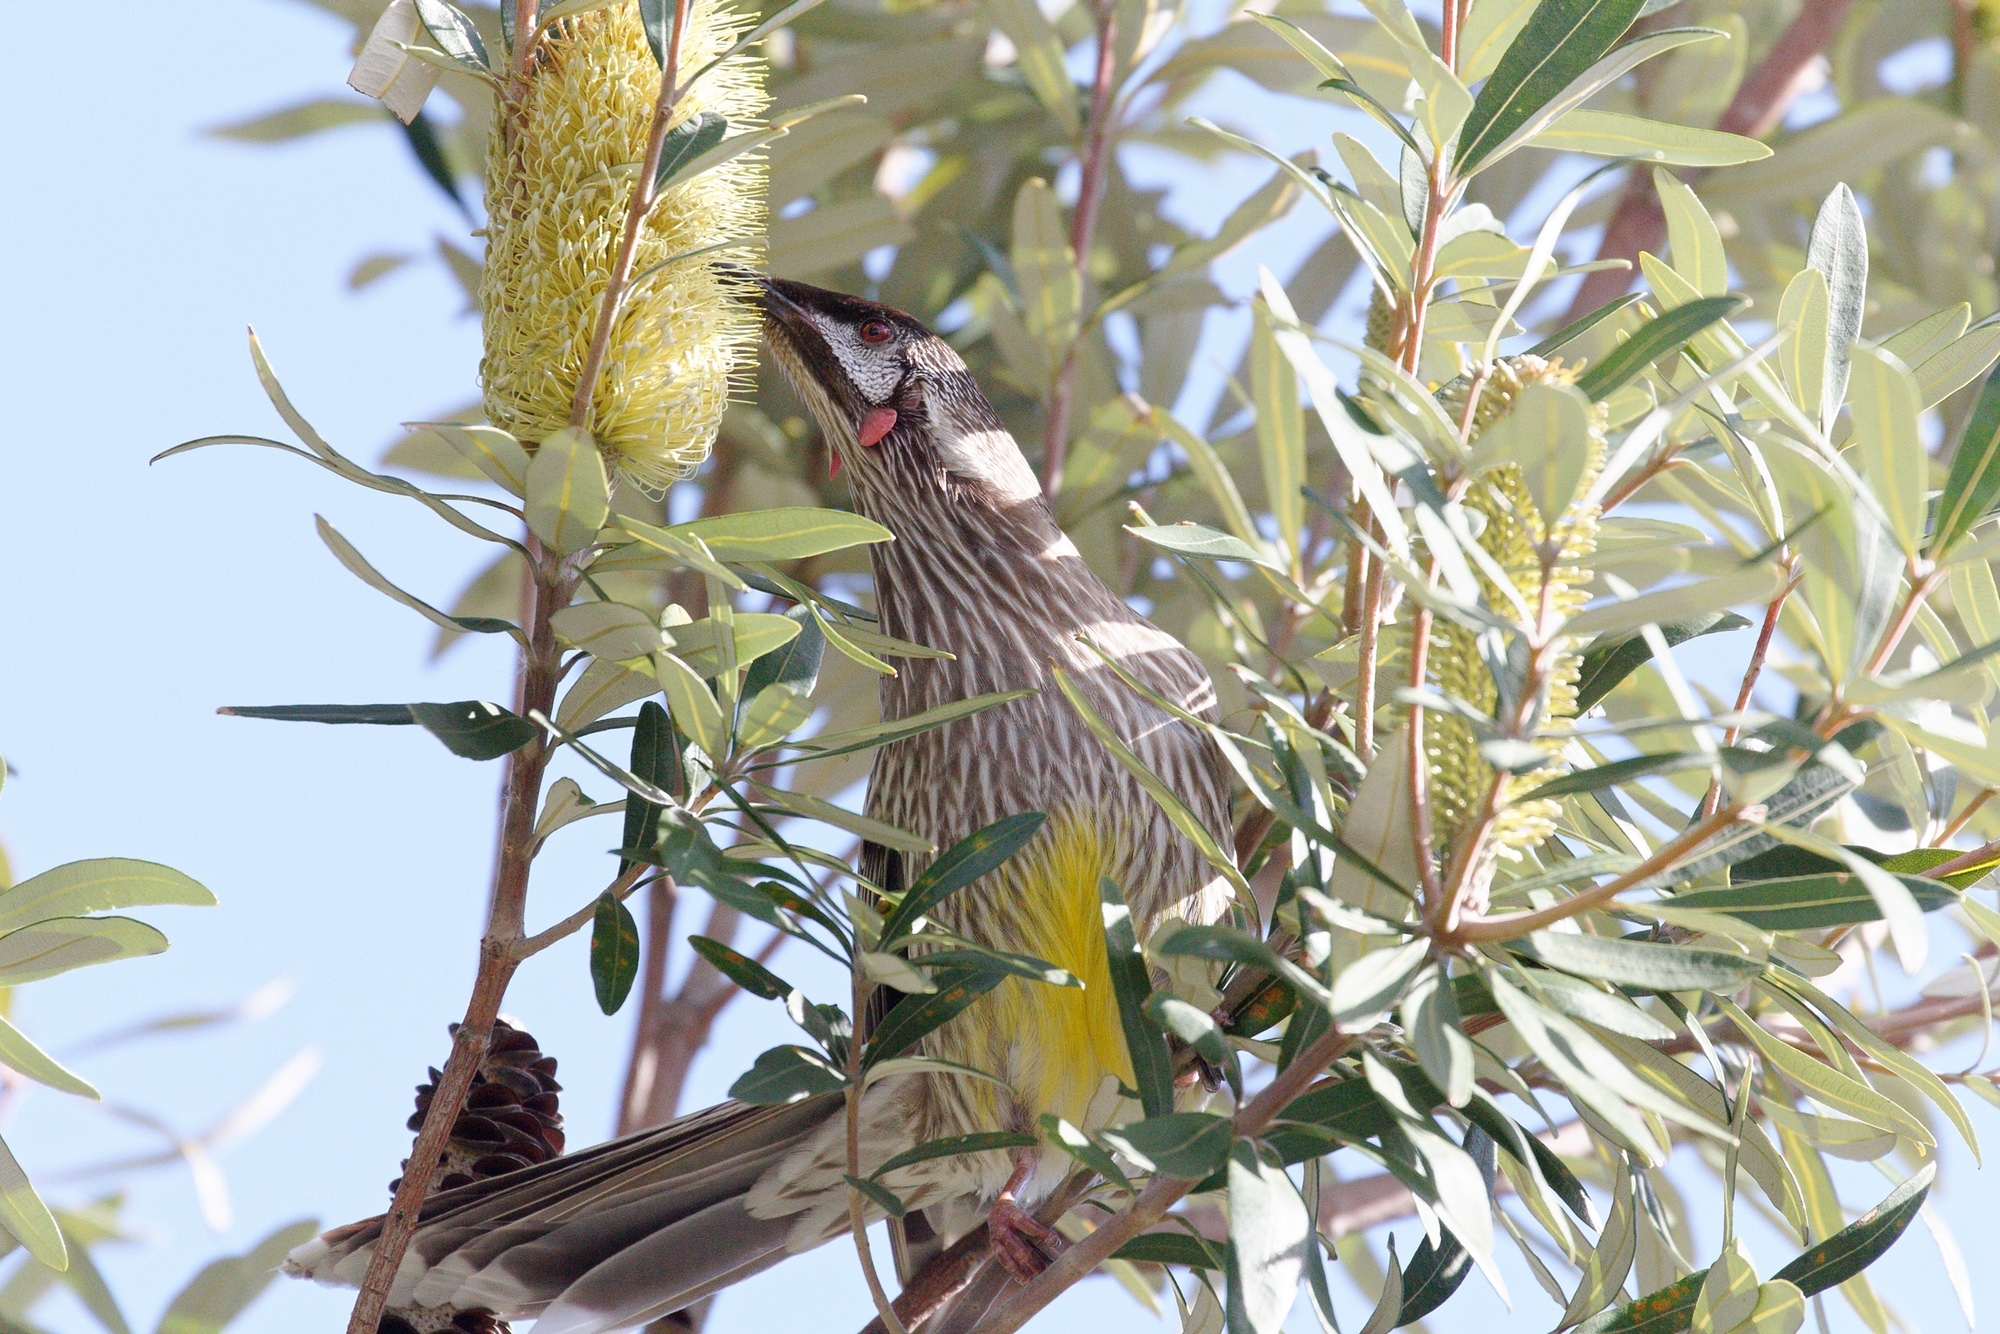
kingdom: Animalia
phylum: Chordata
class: Aves
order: Passeriformes
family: Meliphagidae
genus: Anthochaera
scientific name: Anthochaera carunculata
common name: Red wattlebird
